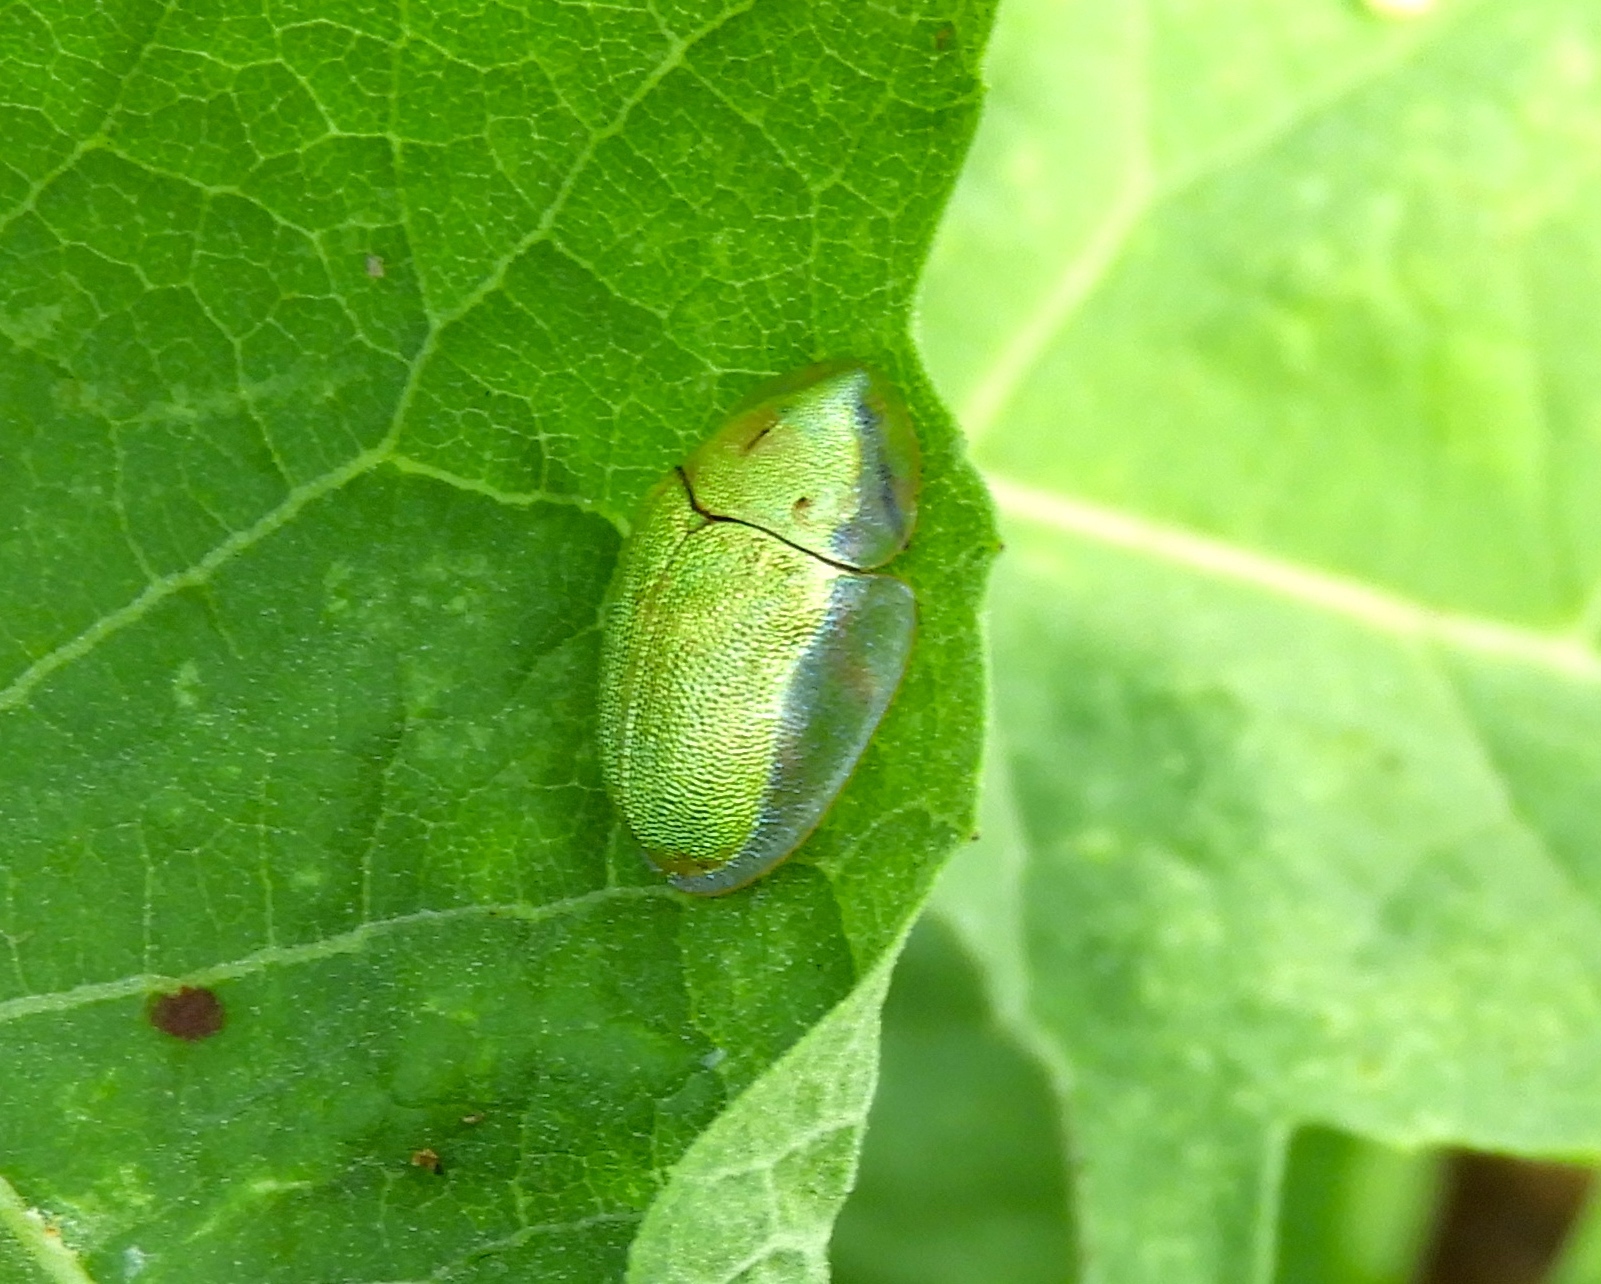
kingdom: Animalia
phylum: Arthropoda
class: Insecta
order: Coleoptera
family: Chrysomelidae
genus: Physonota
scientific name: Physonota arizonae
